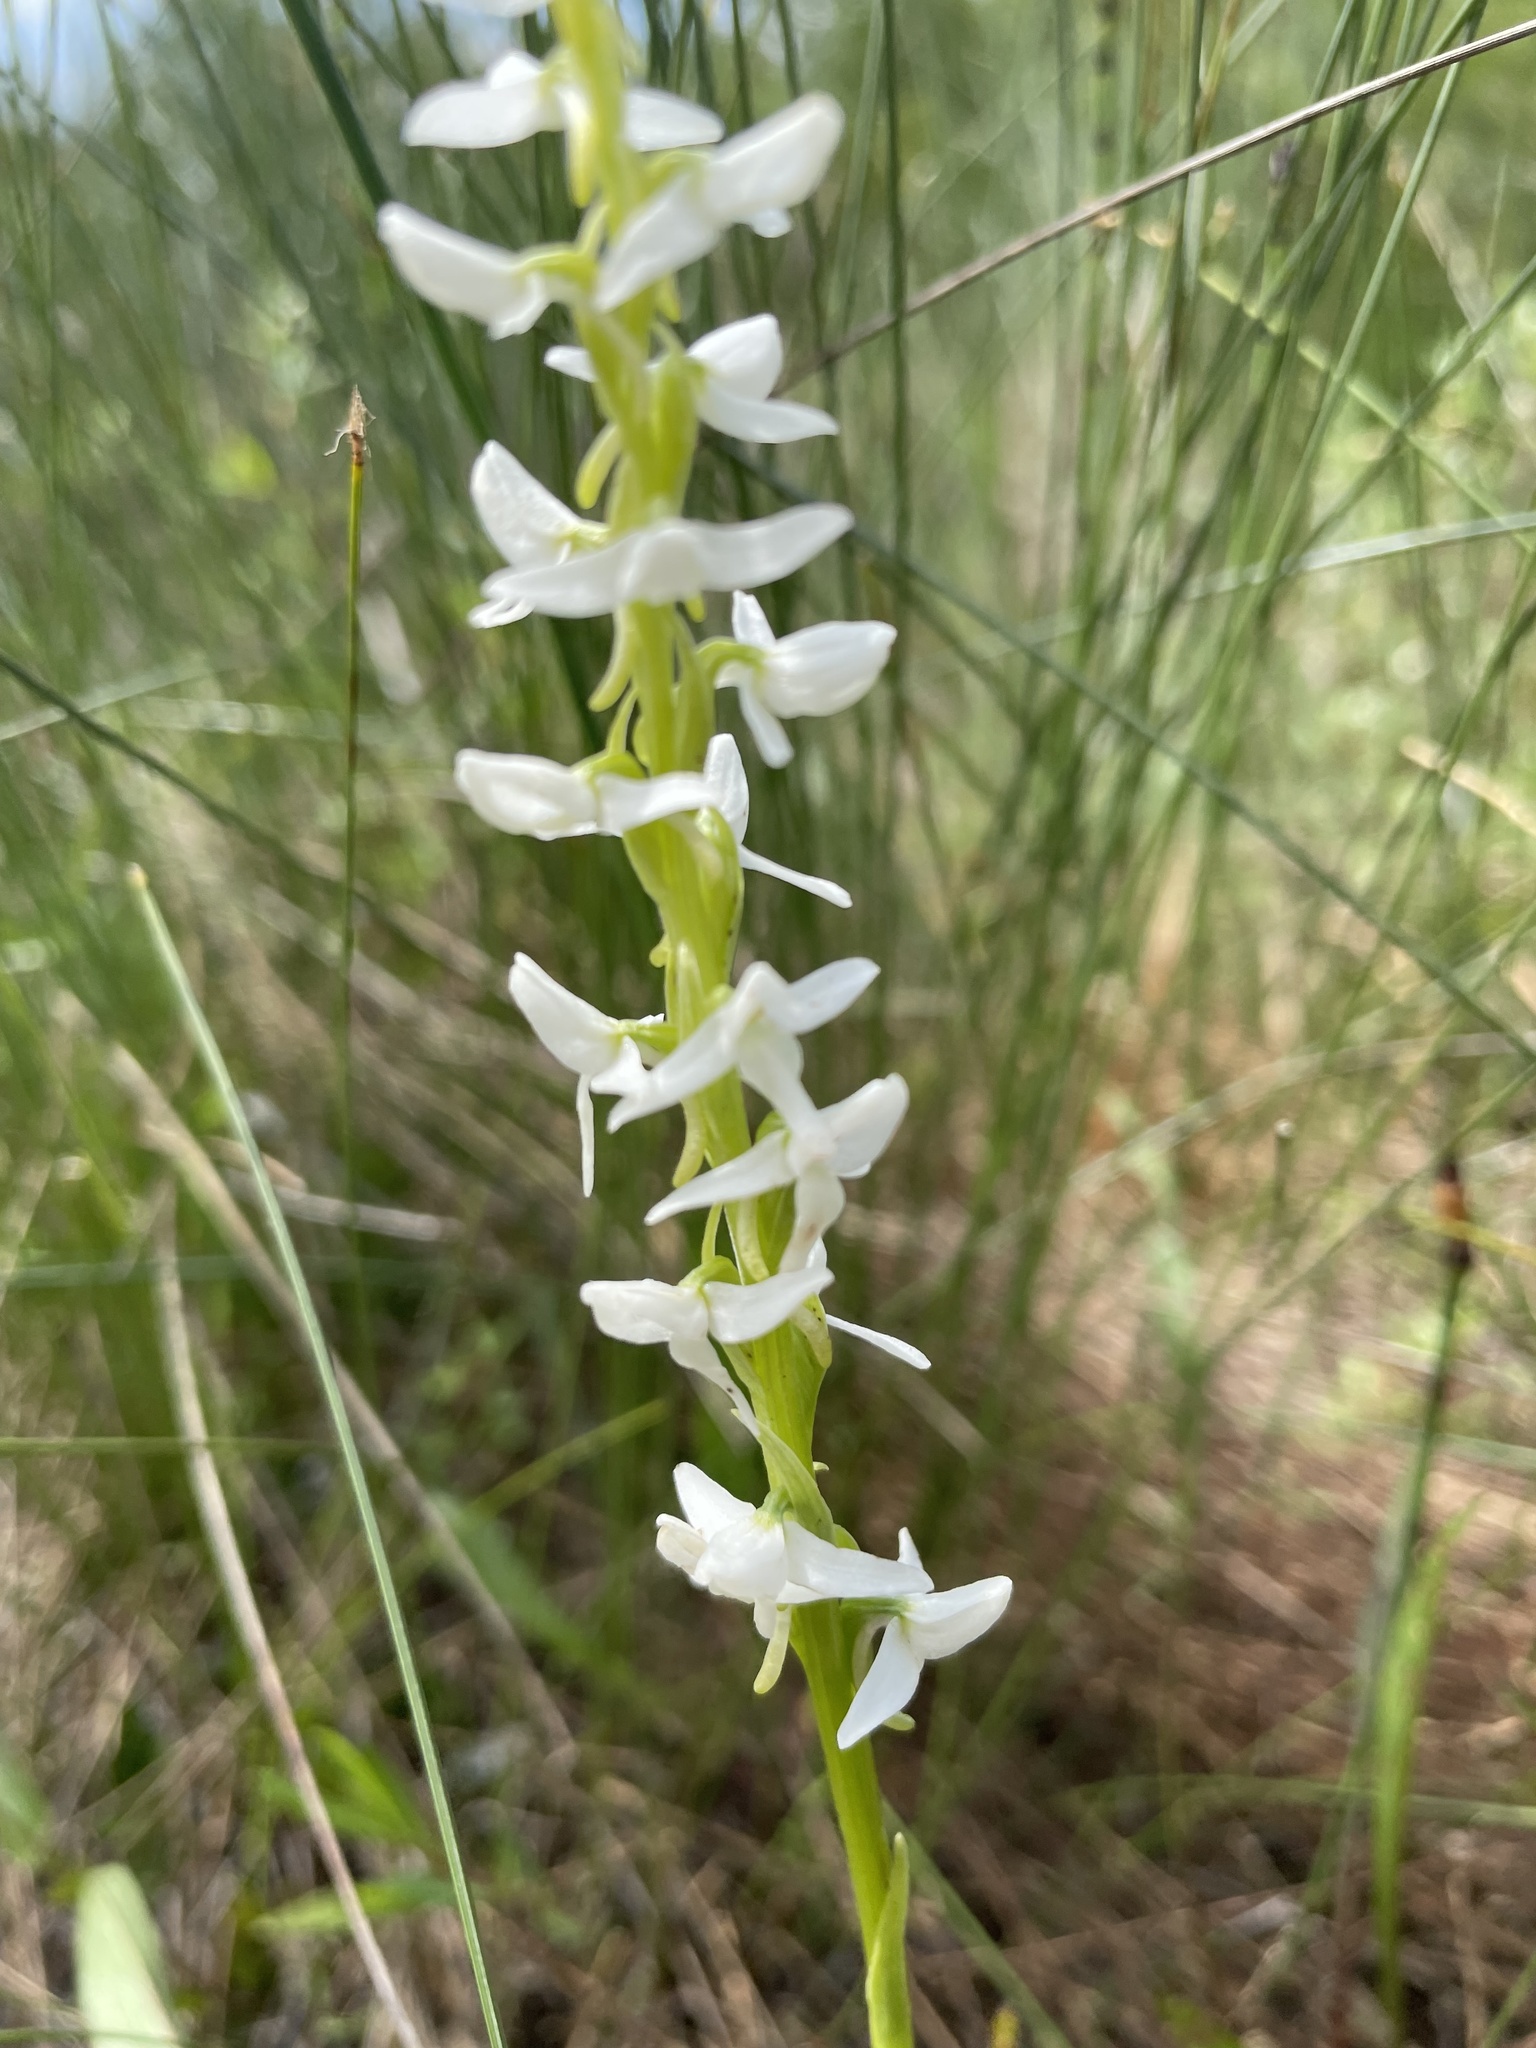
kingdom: Plantae
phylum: Tracheophyta
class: Liliopsida
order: Asparagales
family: Orchidaceae
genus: Platanthera
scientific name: Platanthera dilatata
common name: Bog candles
